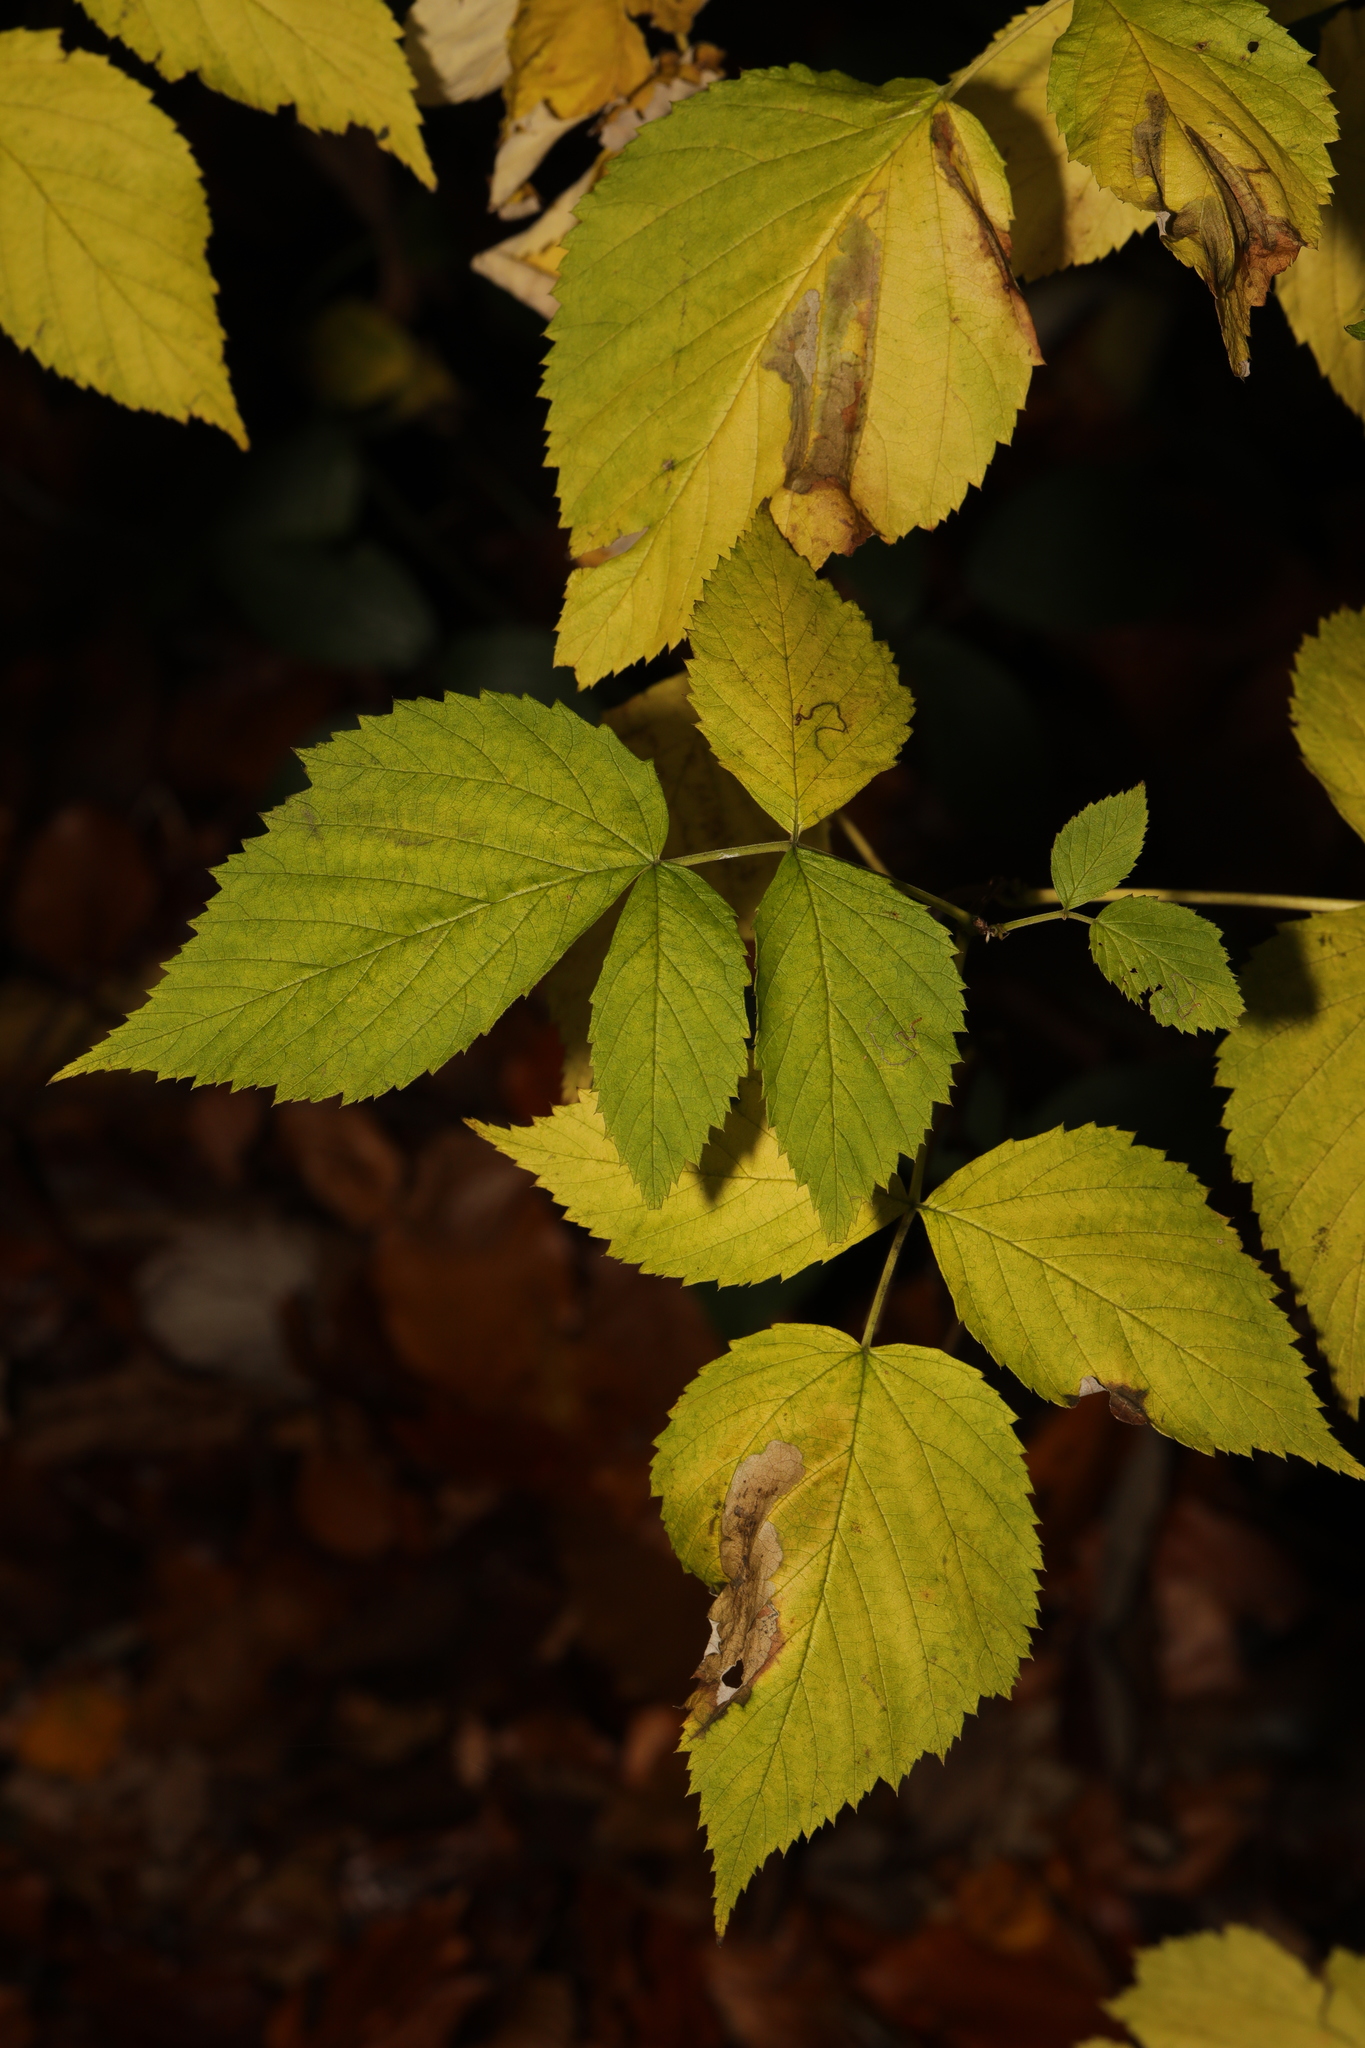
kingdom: Plantae
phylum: Tracheophyta
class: Magnoliopsida
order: Rosales
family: Rosaceae
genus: Rubus
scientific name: Rubus idaeus
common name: Raspberry
